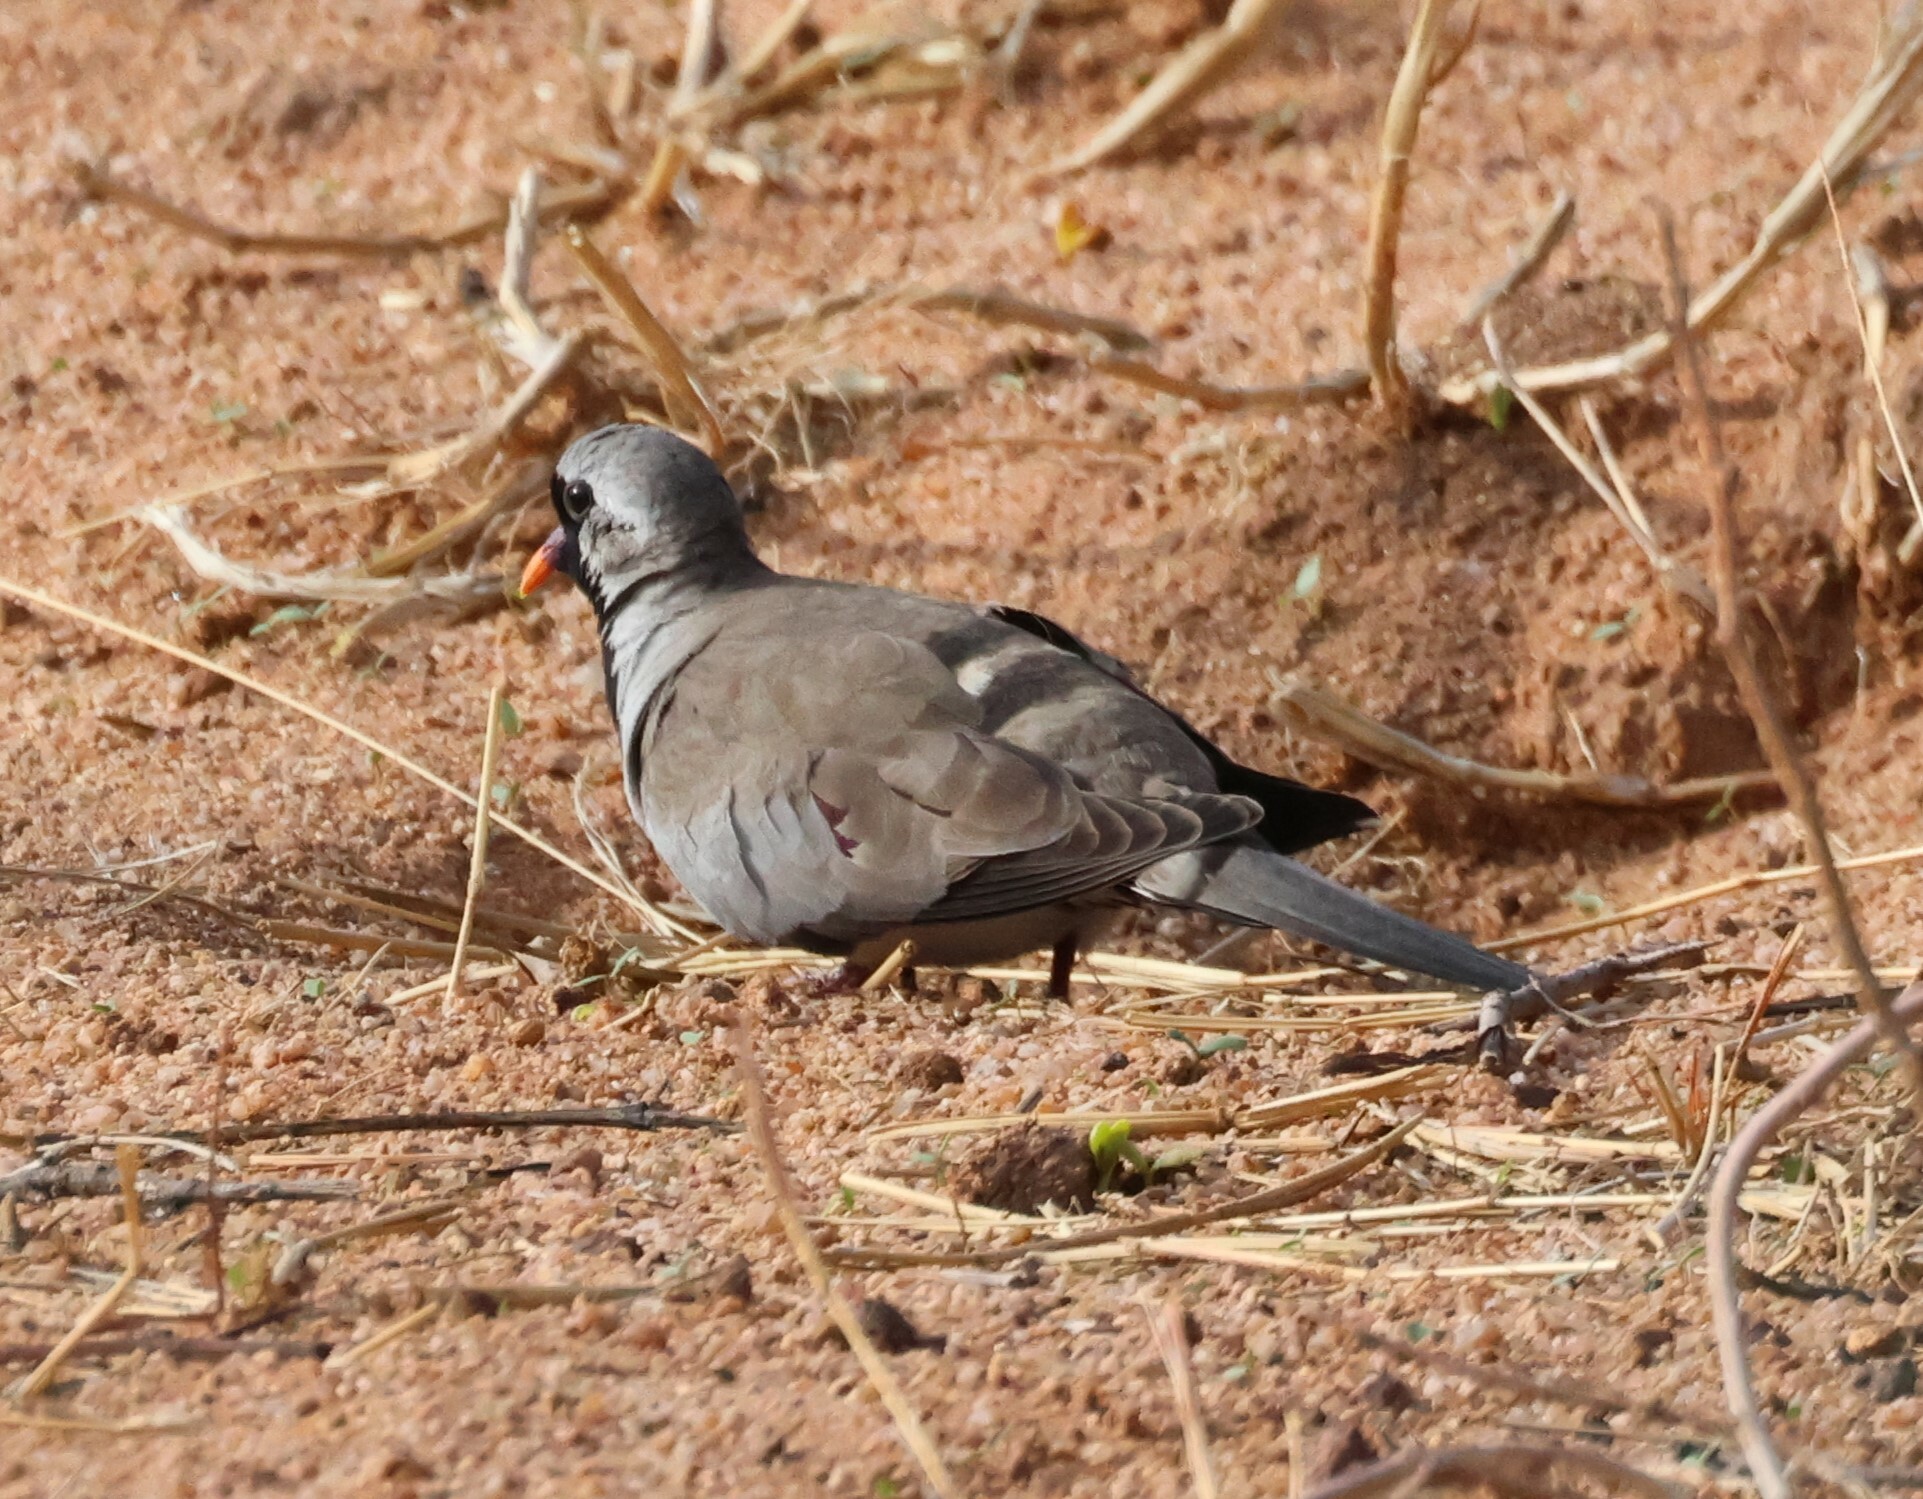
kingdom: Animalia
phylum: Chordata
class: Aves
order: Columbiformes
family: Columbidae
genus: Oena
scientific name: Oena capensis
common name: Namaqua dove
